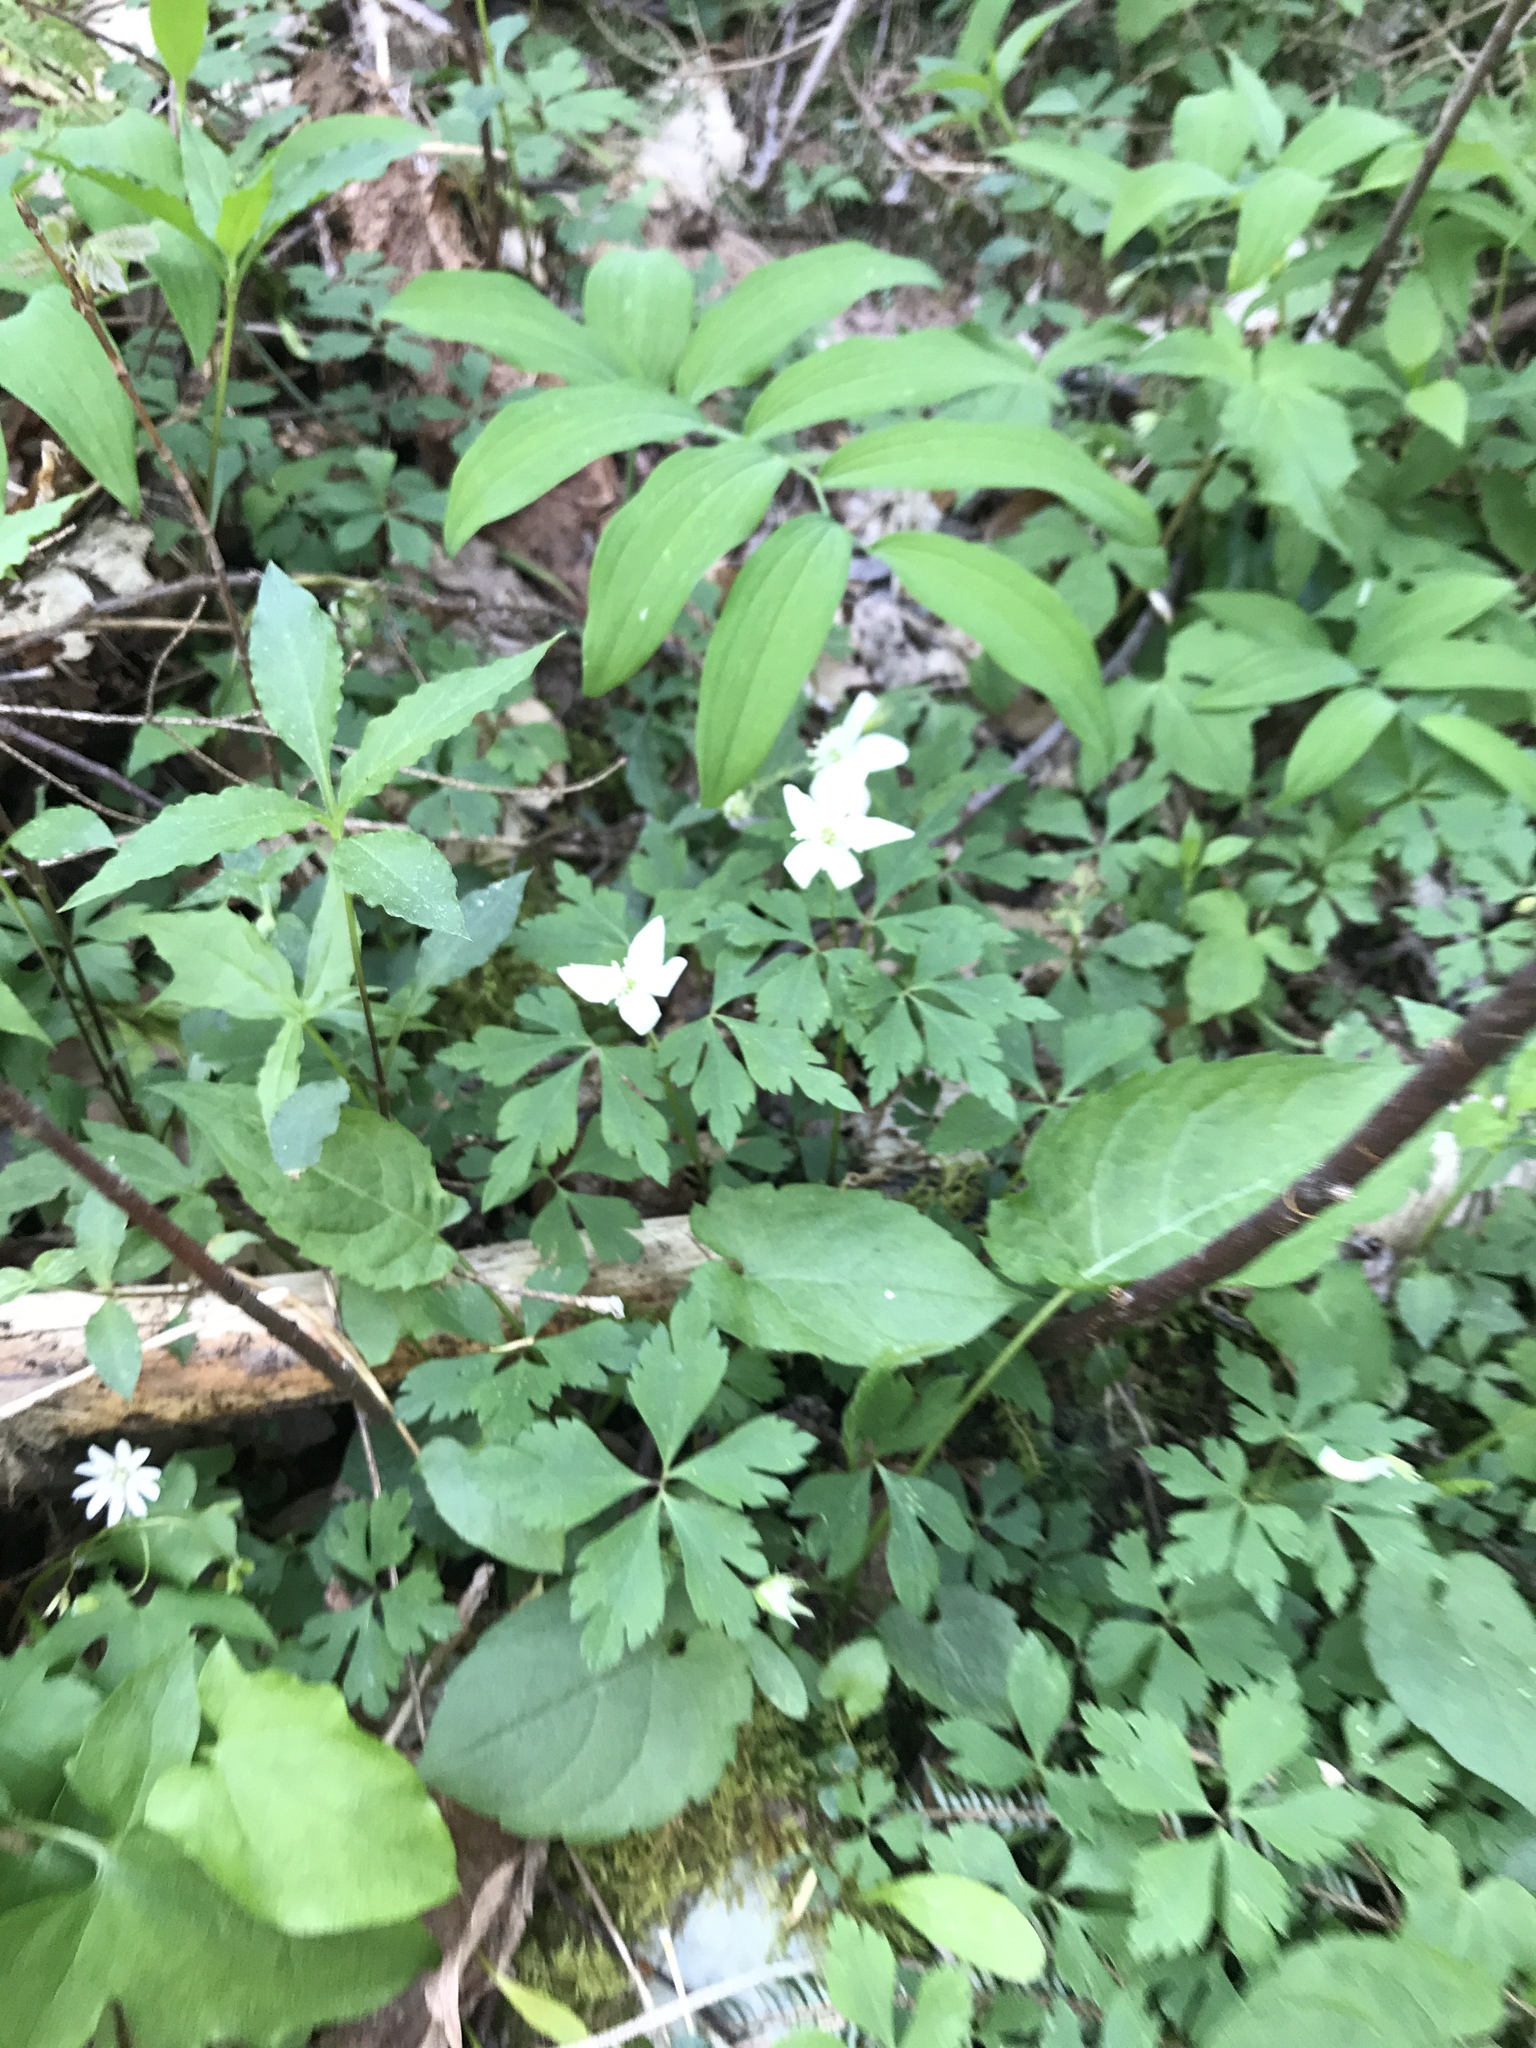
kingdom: Plantae
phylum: Tracheophyta
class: Magnoliopsida
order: Ranunculales
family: Ranunculaceae
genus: Anemone
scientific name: Anemone quinquefolia
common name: Wood anemone
